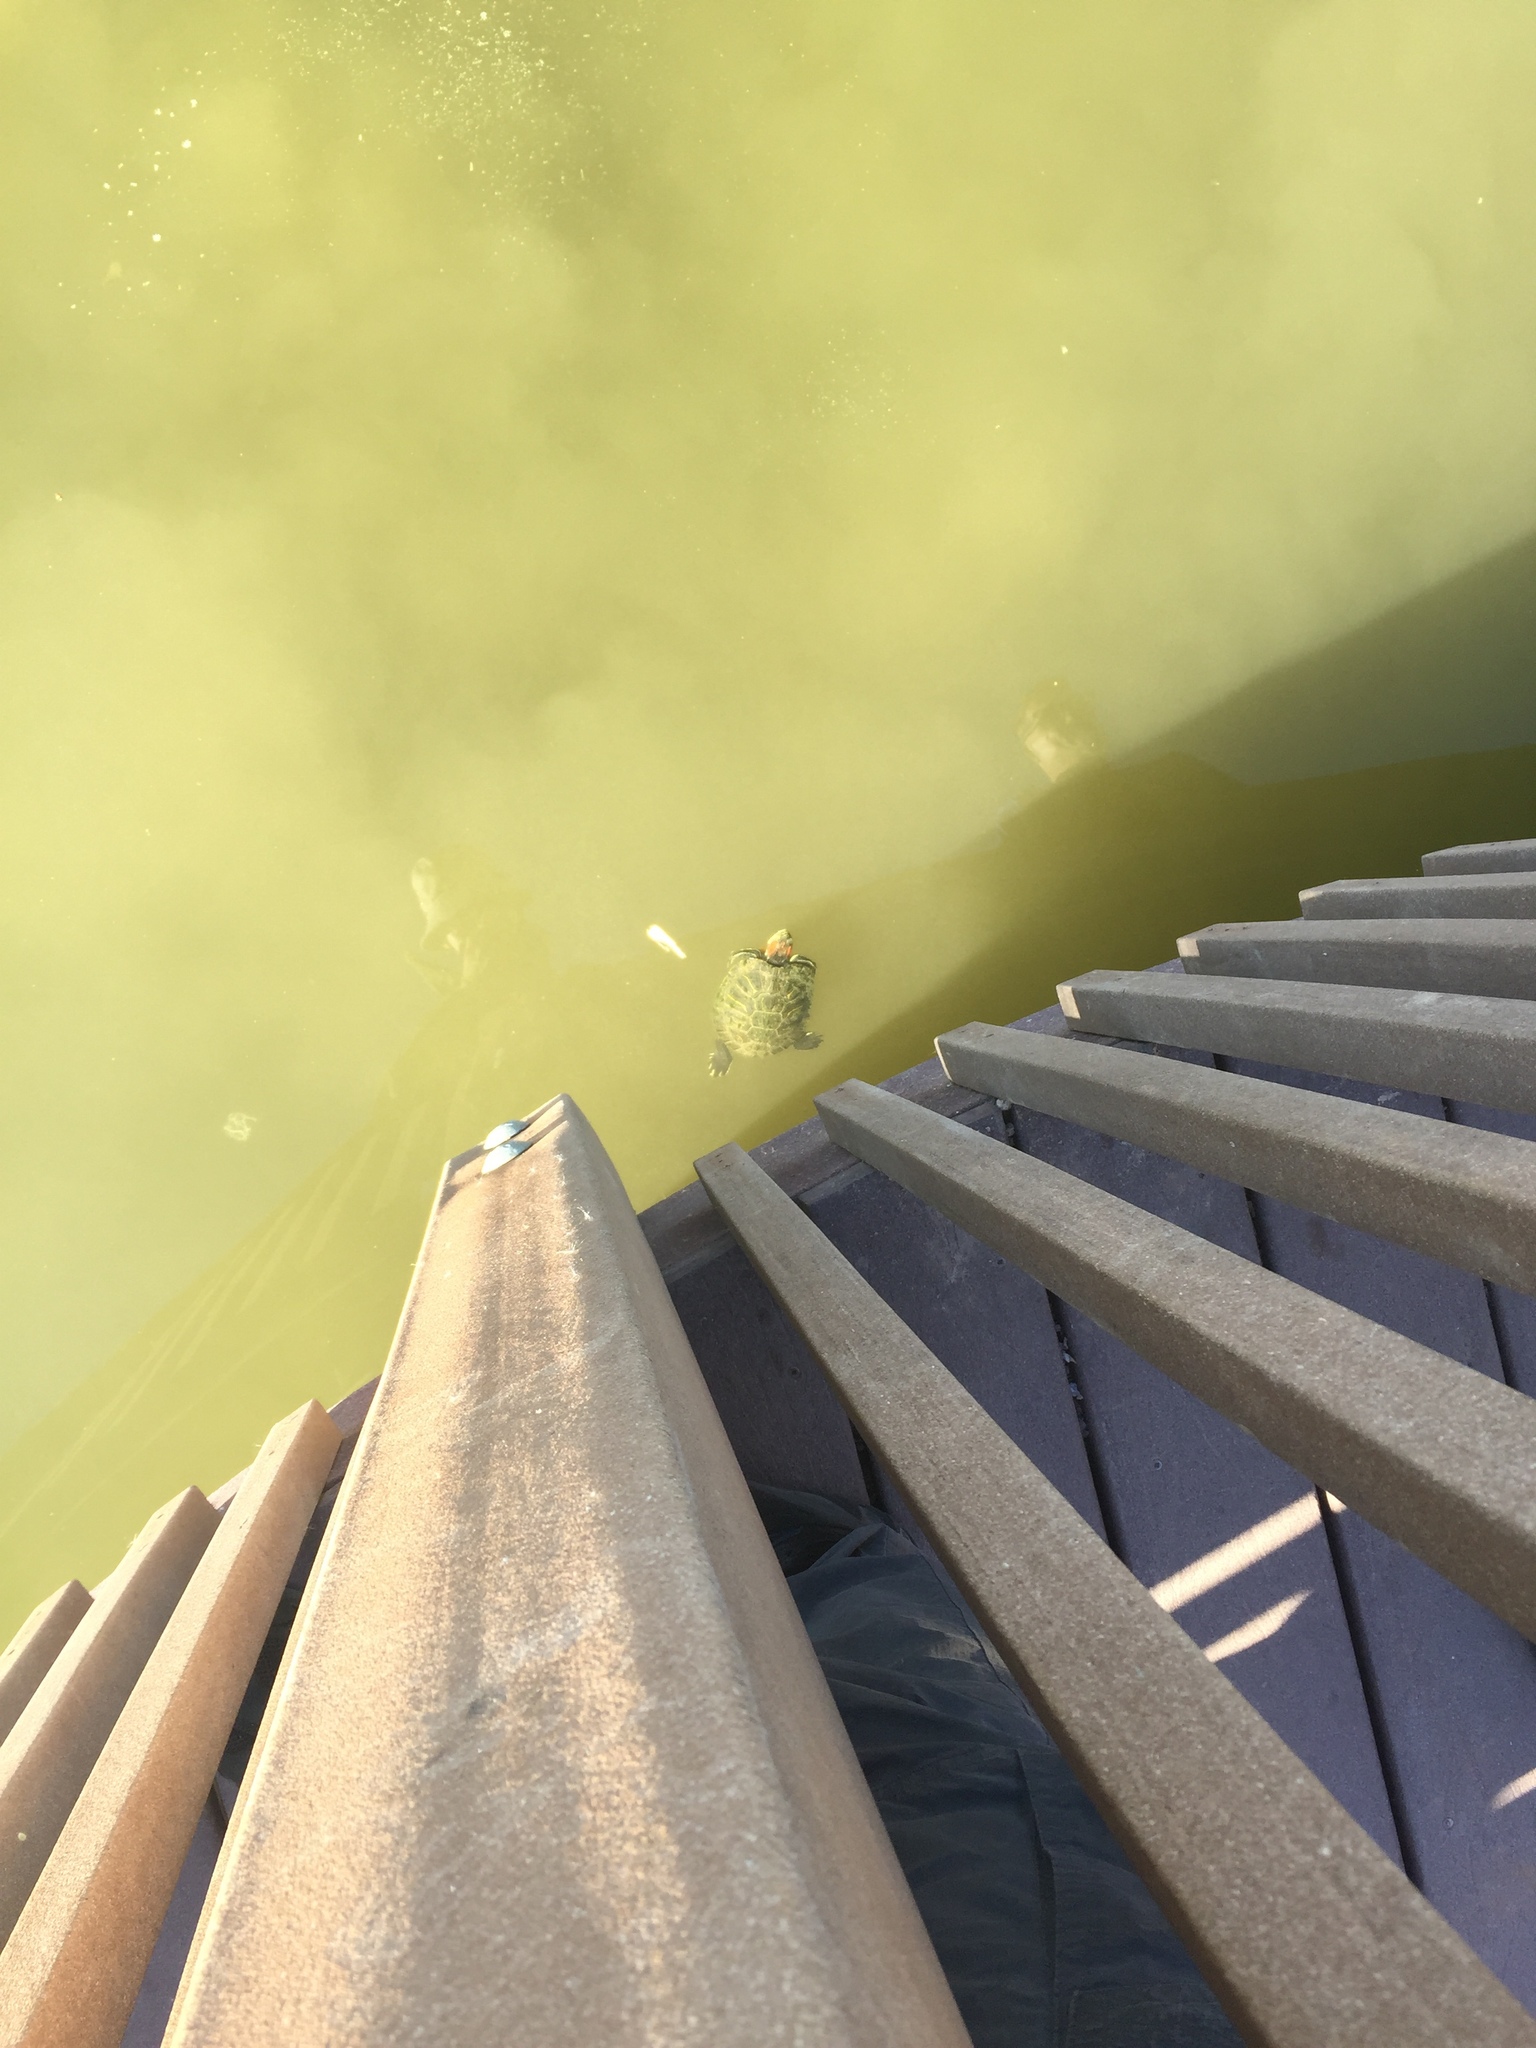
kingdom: Animalia
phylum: Chordata
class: Testudines
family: Emydidae
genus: Trachemys
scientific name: Trachemys scripta
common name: Slider
